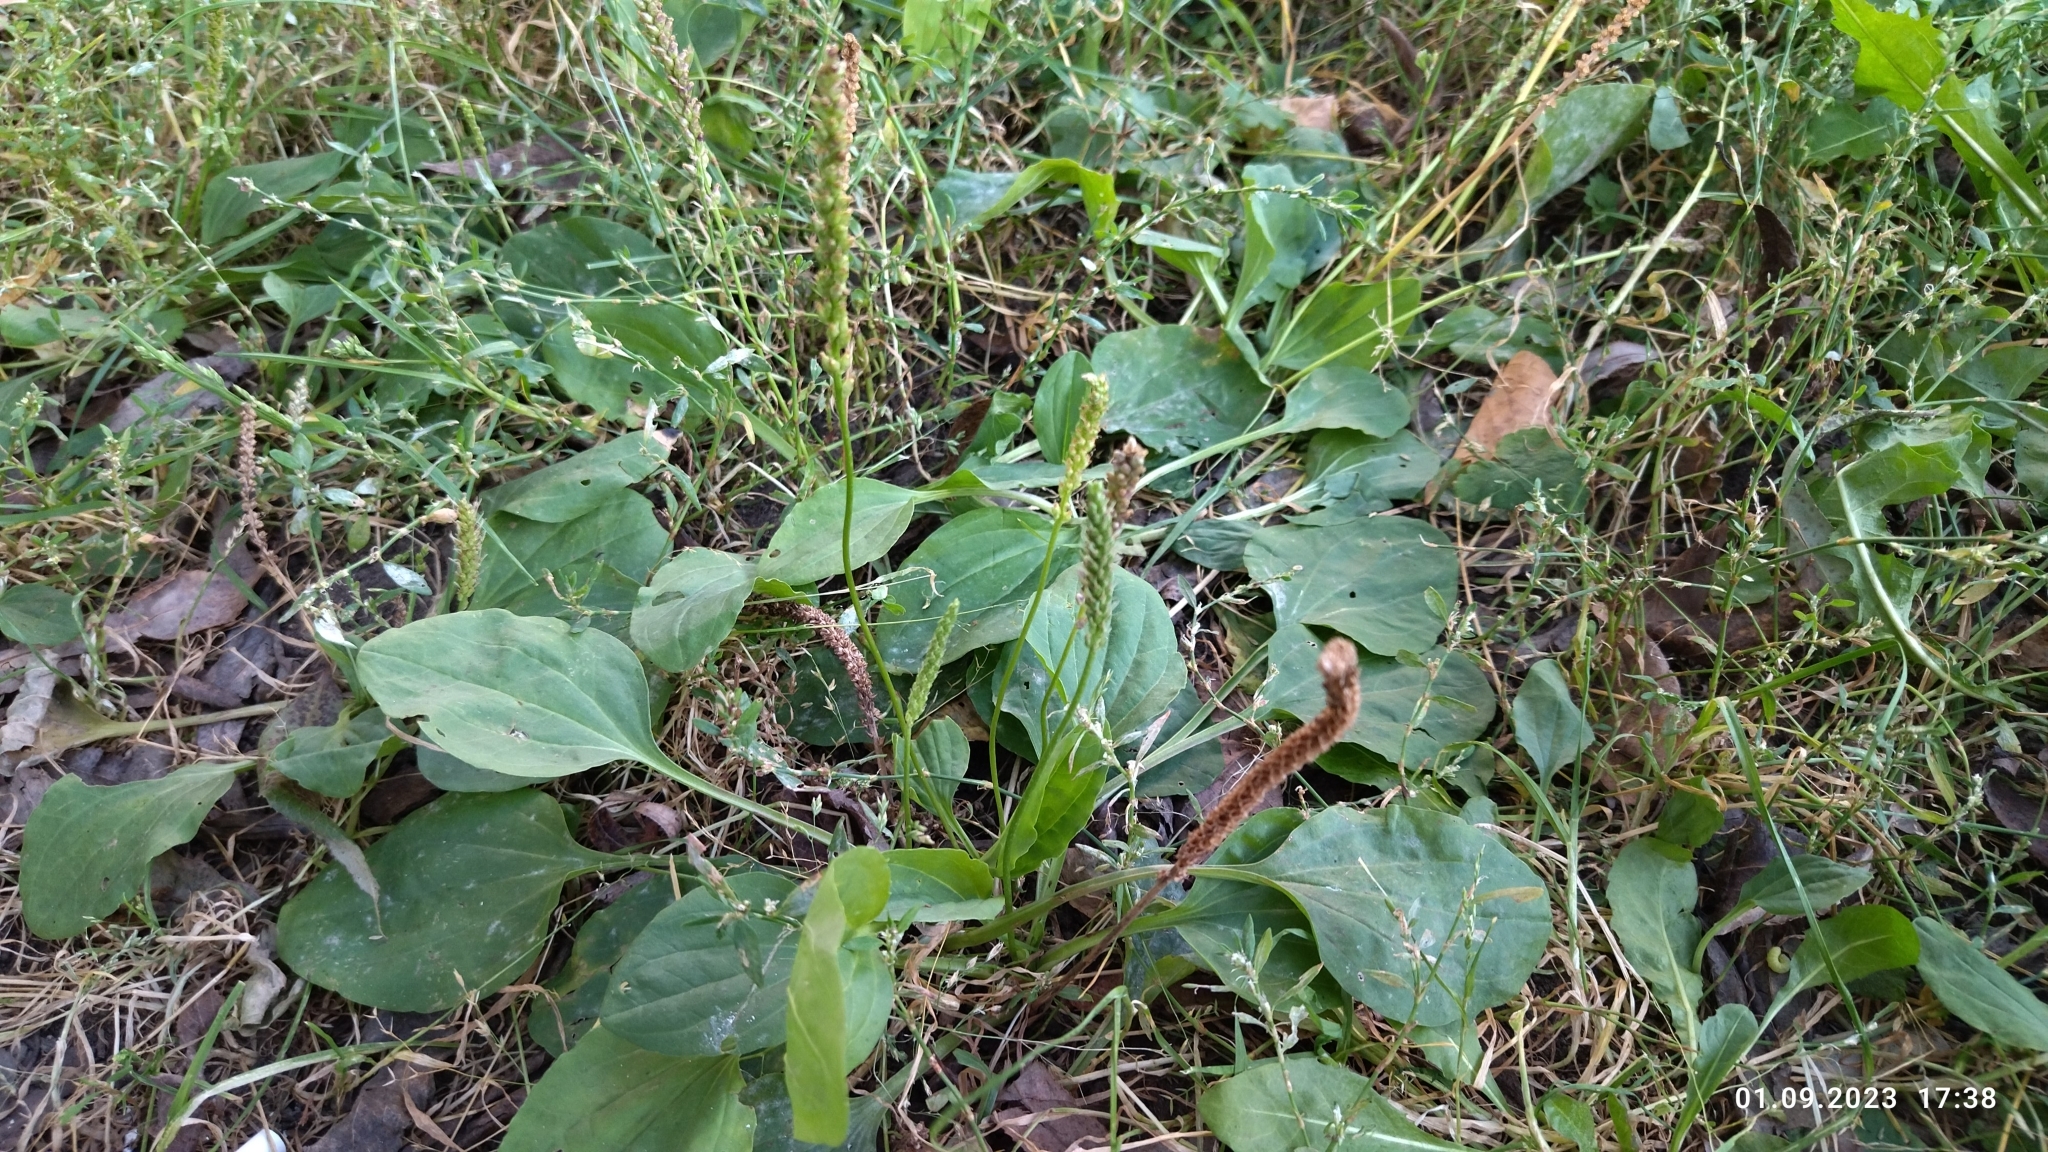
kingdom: Plantae
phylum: Tracheophyta
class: Magnoliopsida
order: Lamiales
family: Plantaginaceae
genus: Plantago
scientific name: Plantago major
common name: Common plantain
